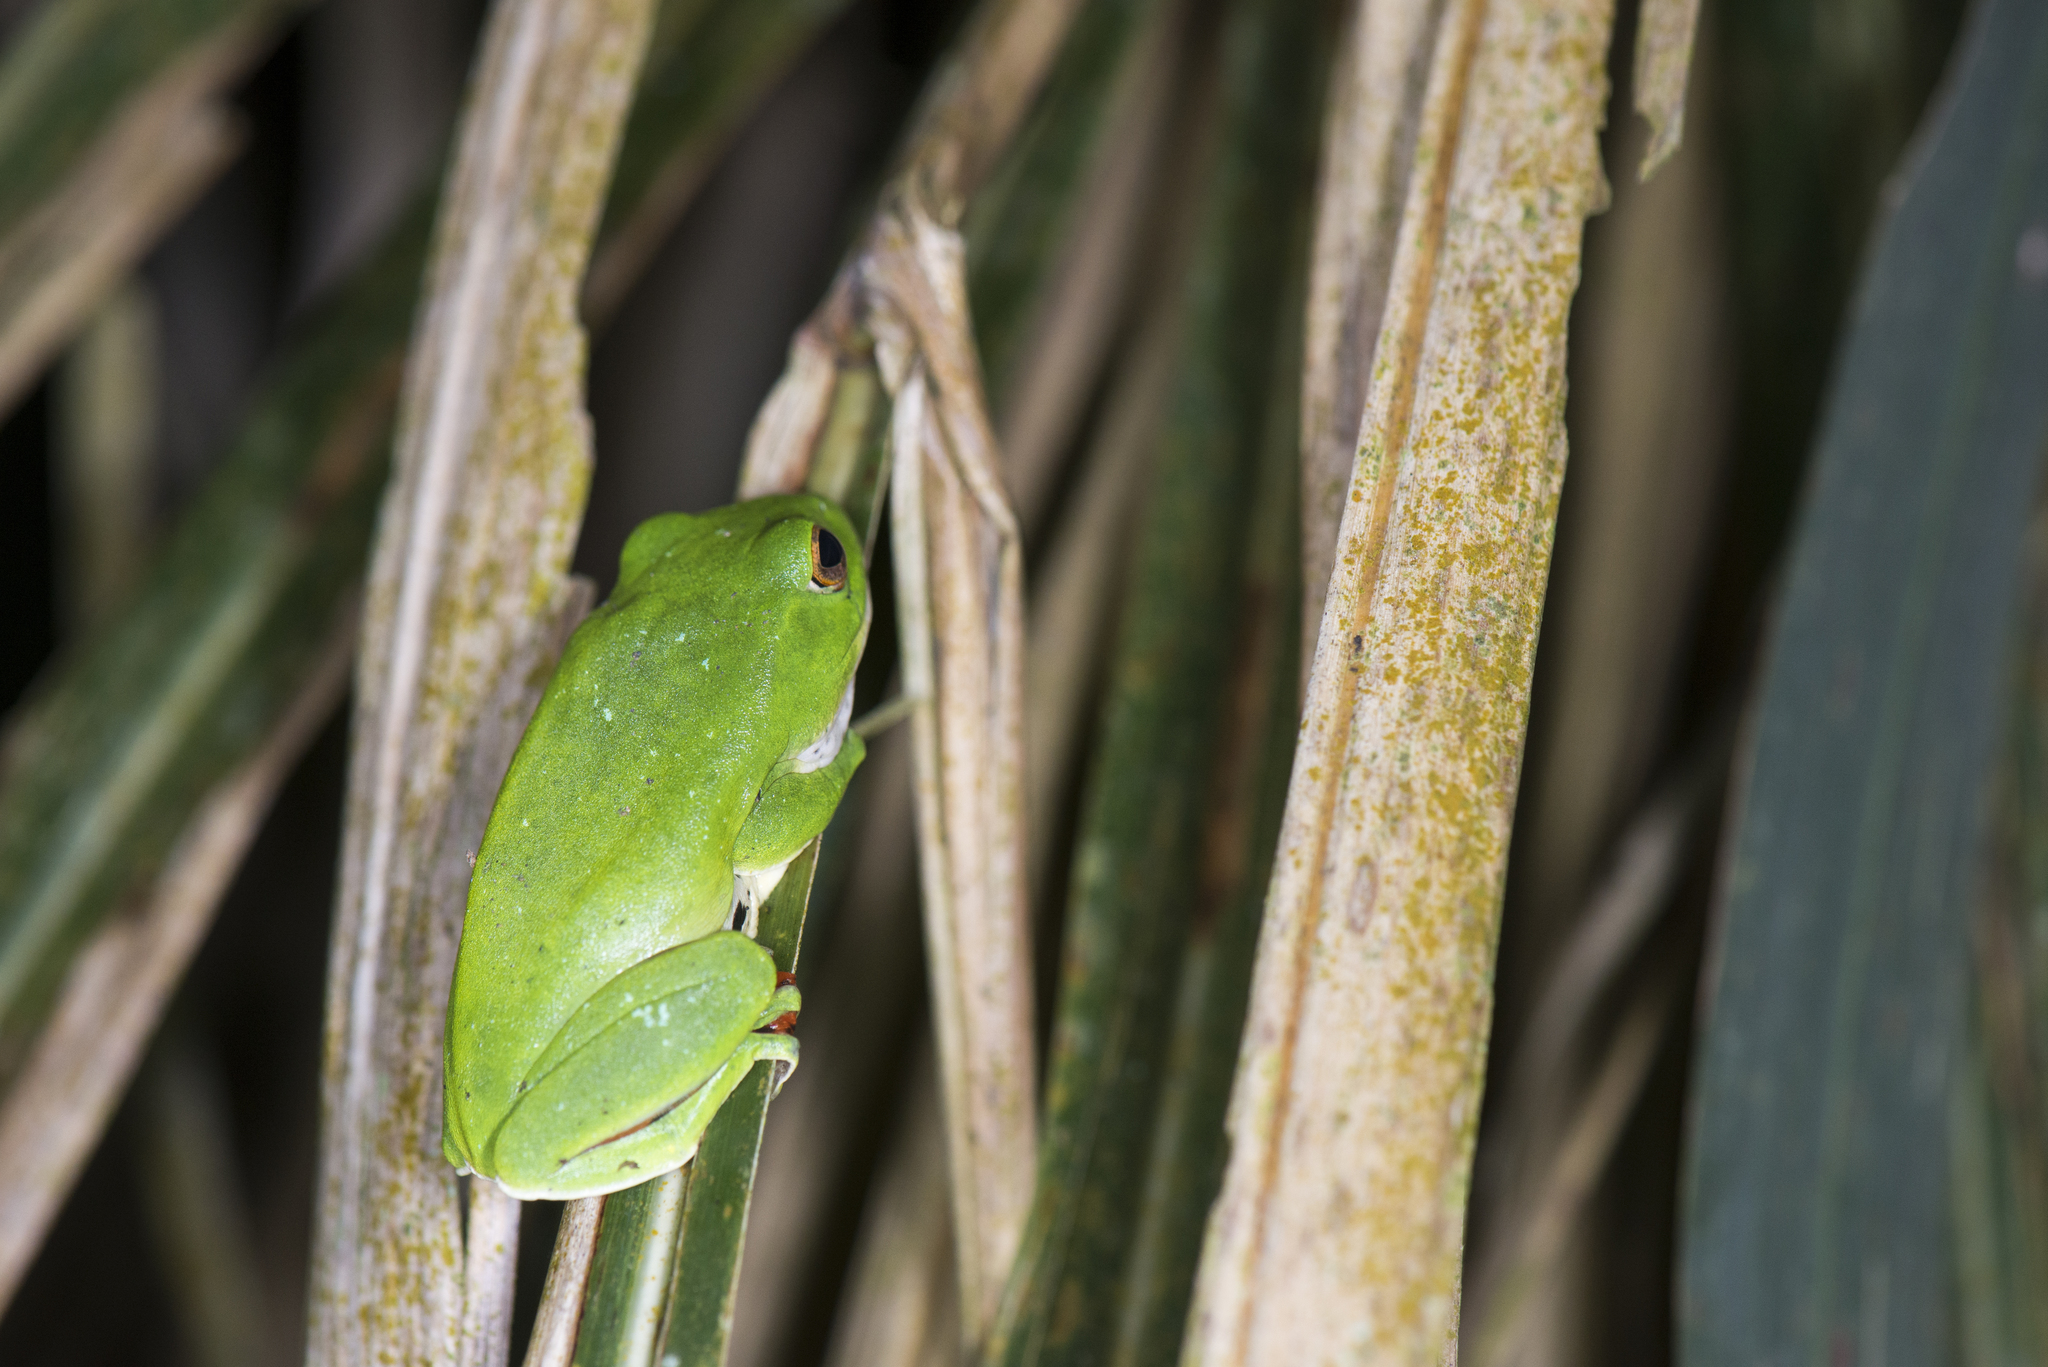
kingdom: Animalia
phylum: Chordata
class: Amphibia
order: Anura
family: Rhacophoridae
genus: Zhangixalus
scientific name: Zhangixalus moltrechti
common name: Moltrecht's treefrog
